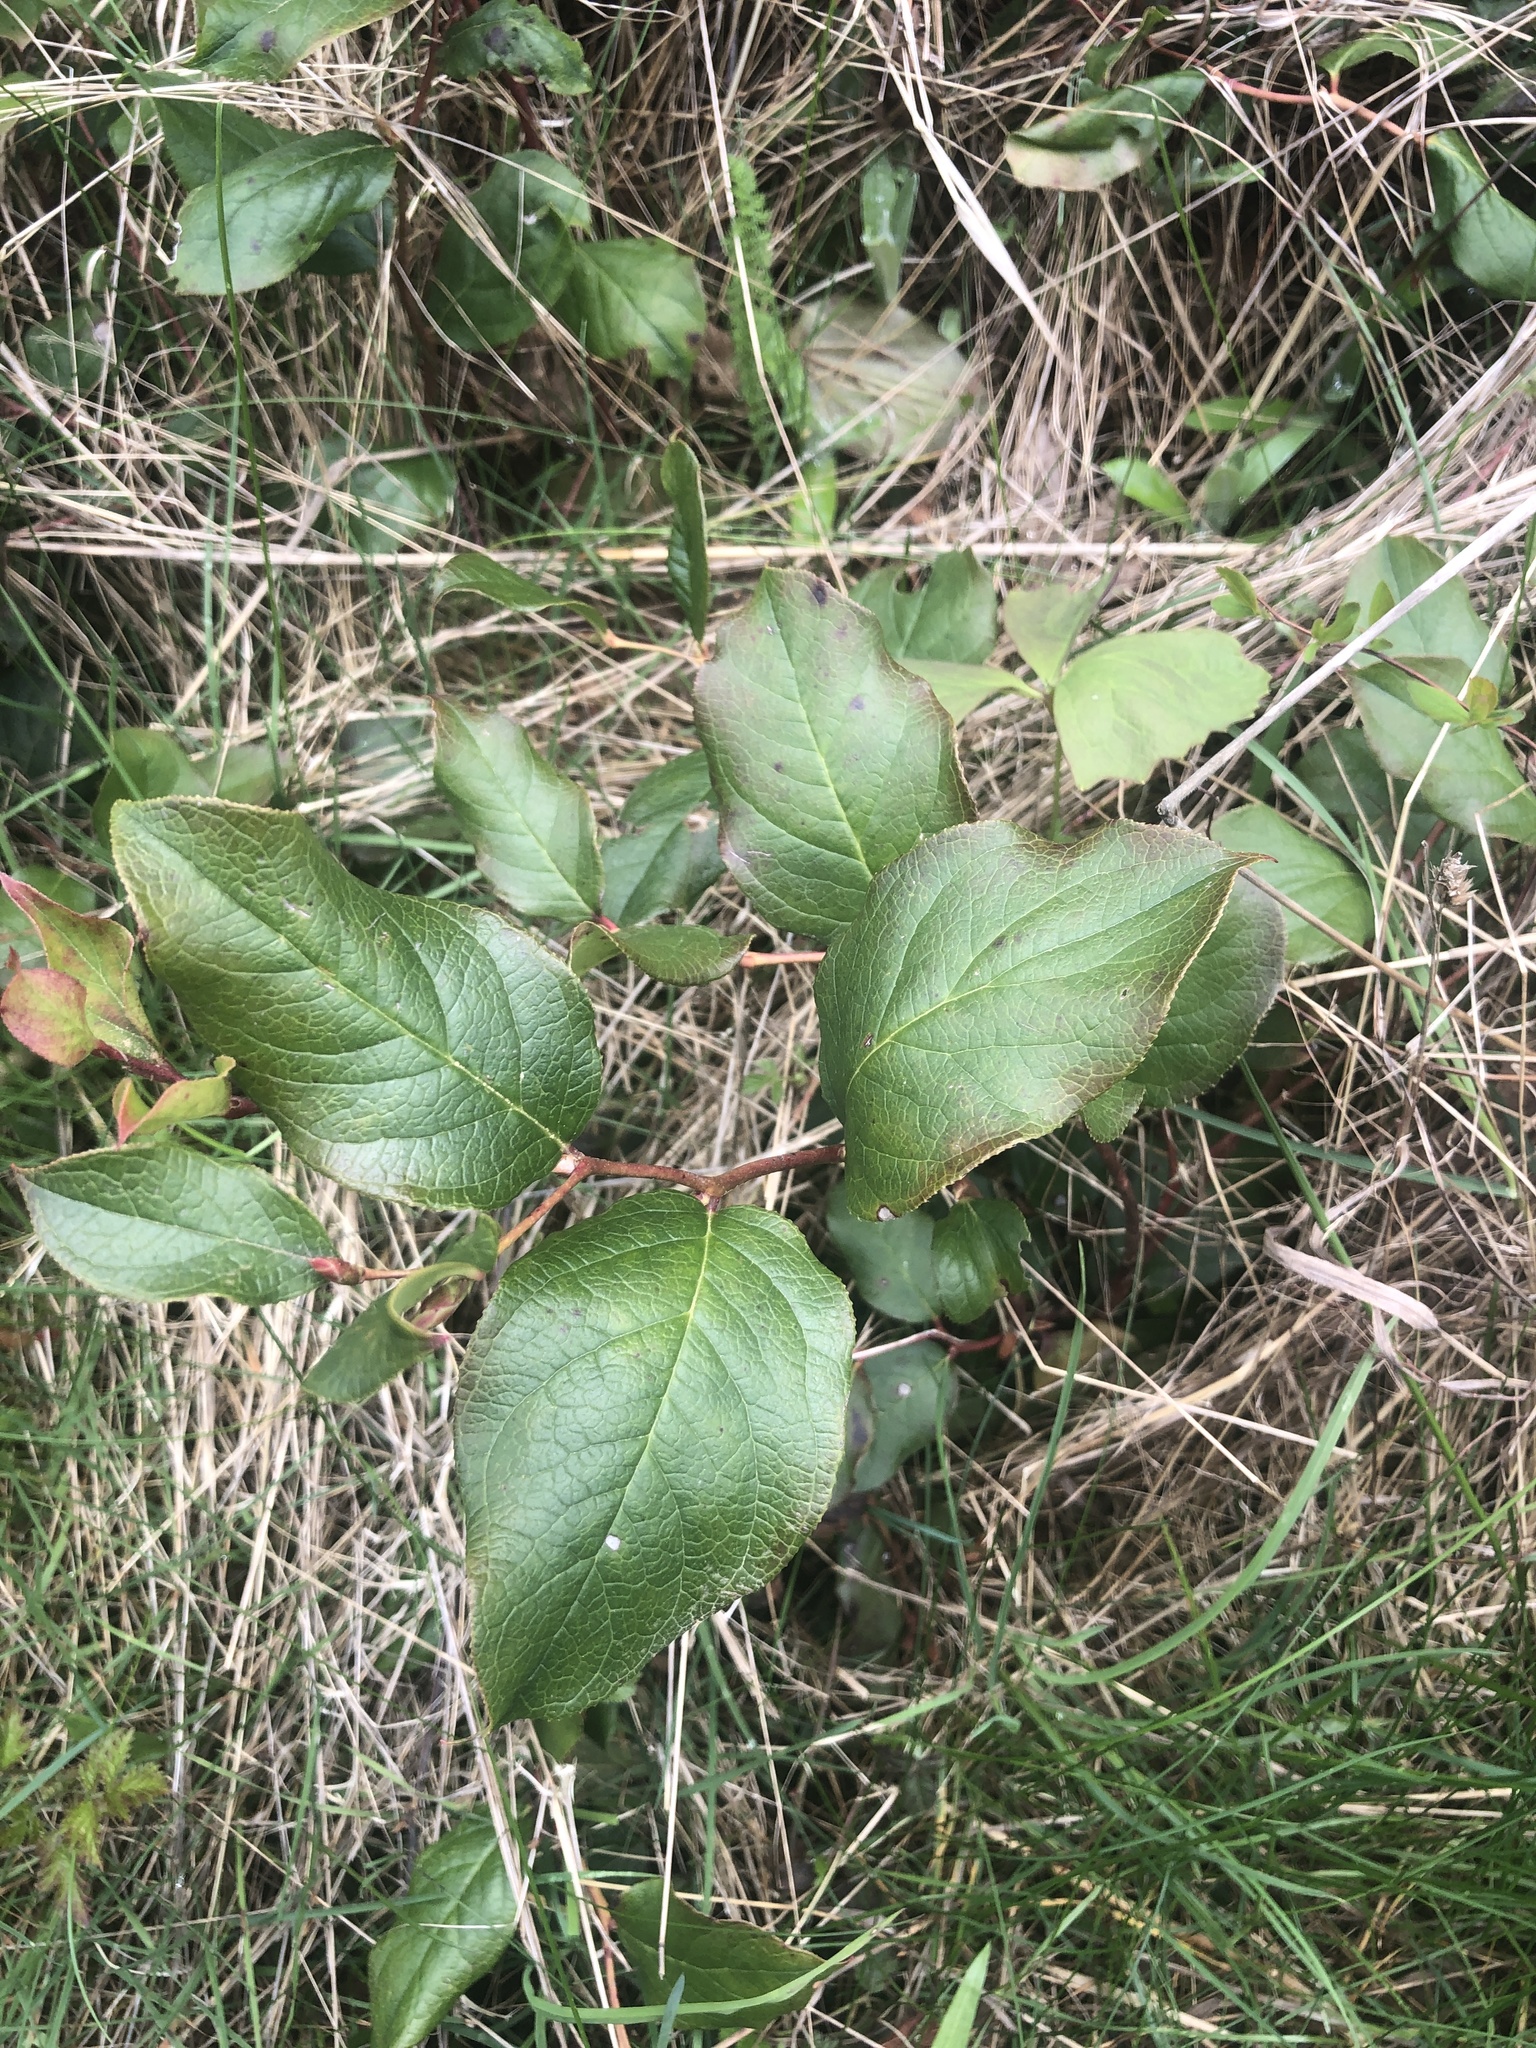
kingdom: Plantae
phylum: Tracheophyta
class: Magnoliopsida
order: Ericales
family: Ericaceae
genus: Gaultheria
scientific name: Gaultheria shallon
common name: Shallon
